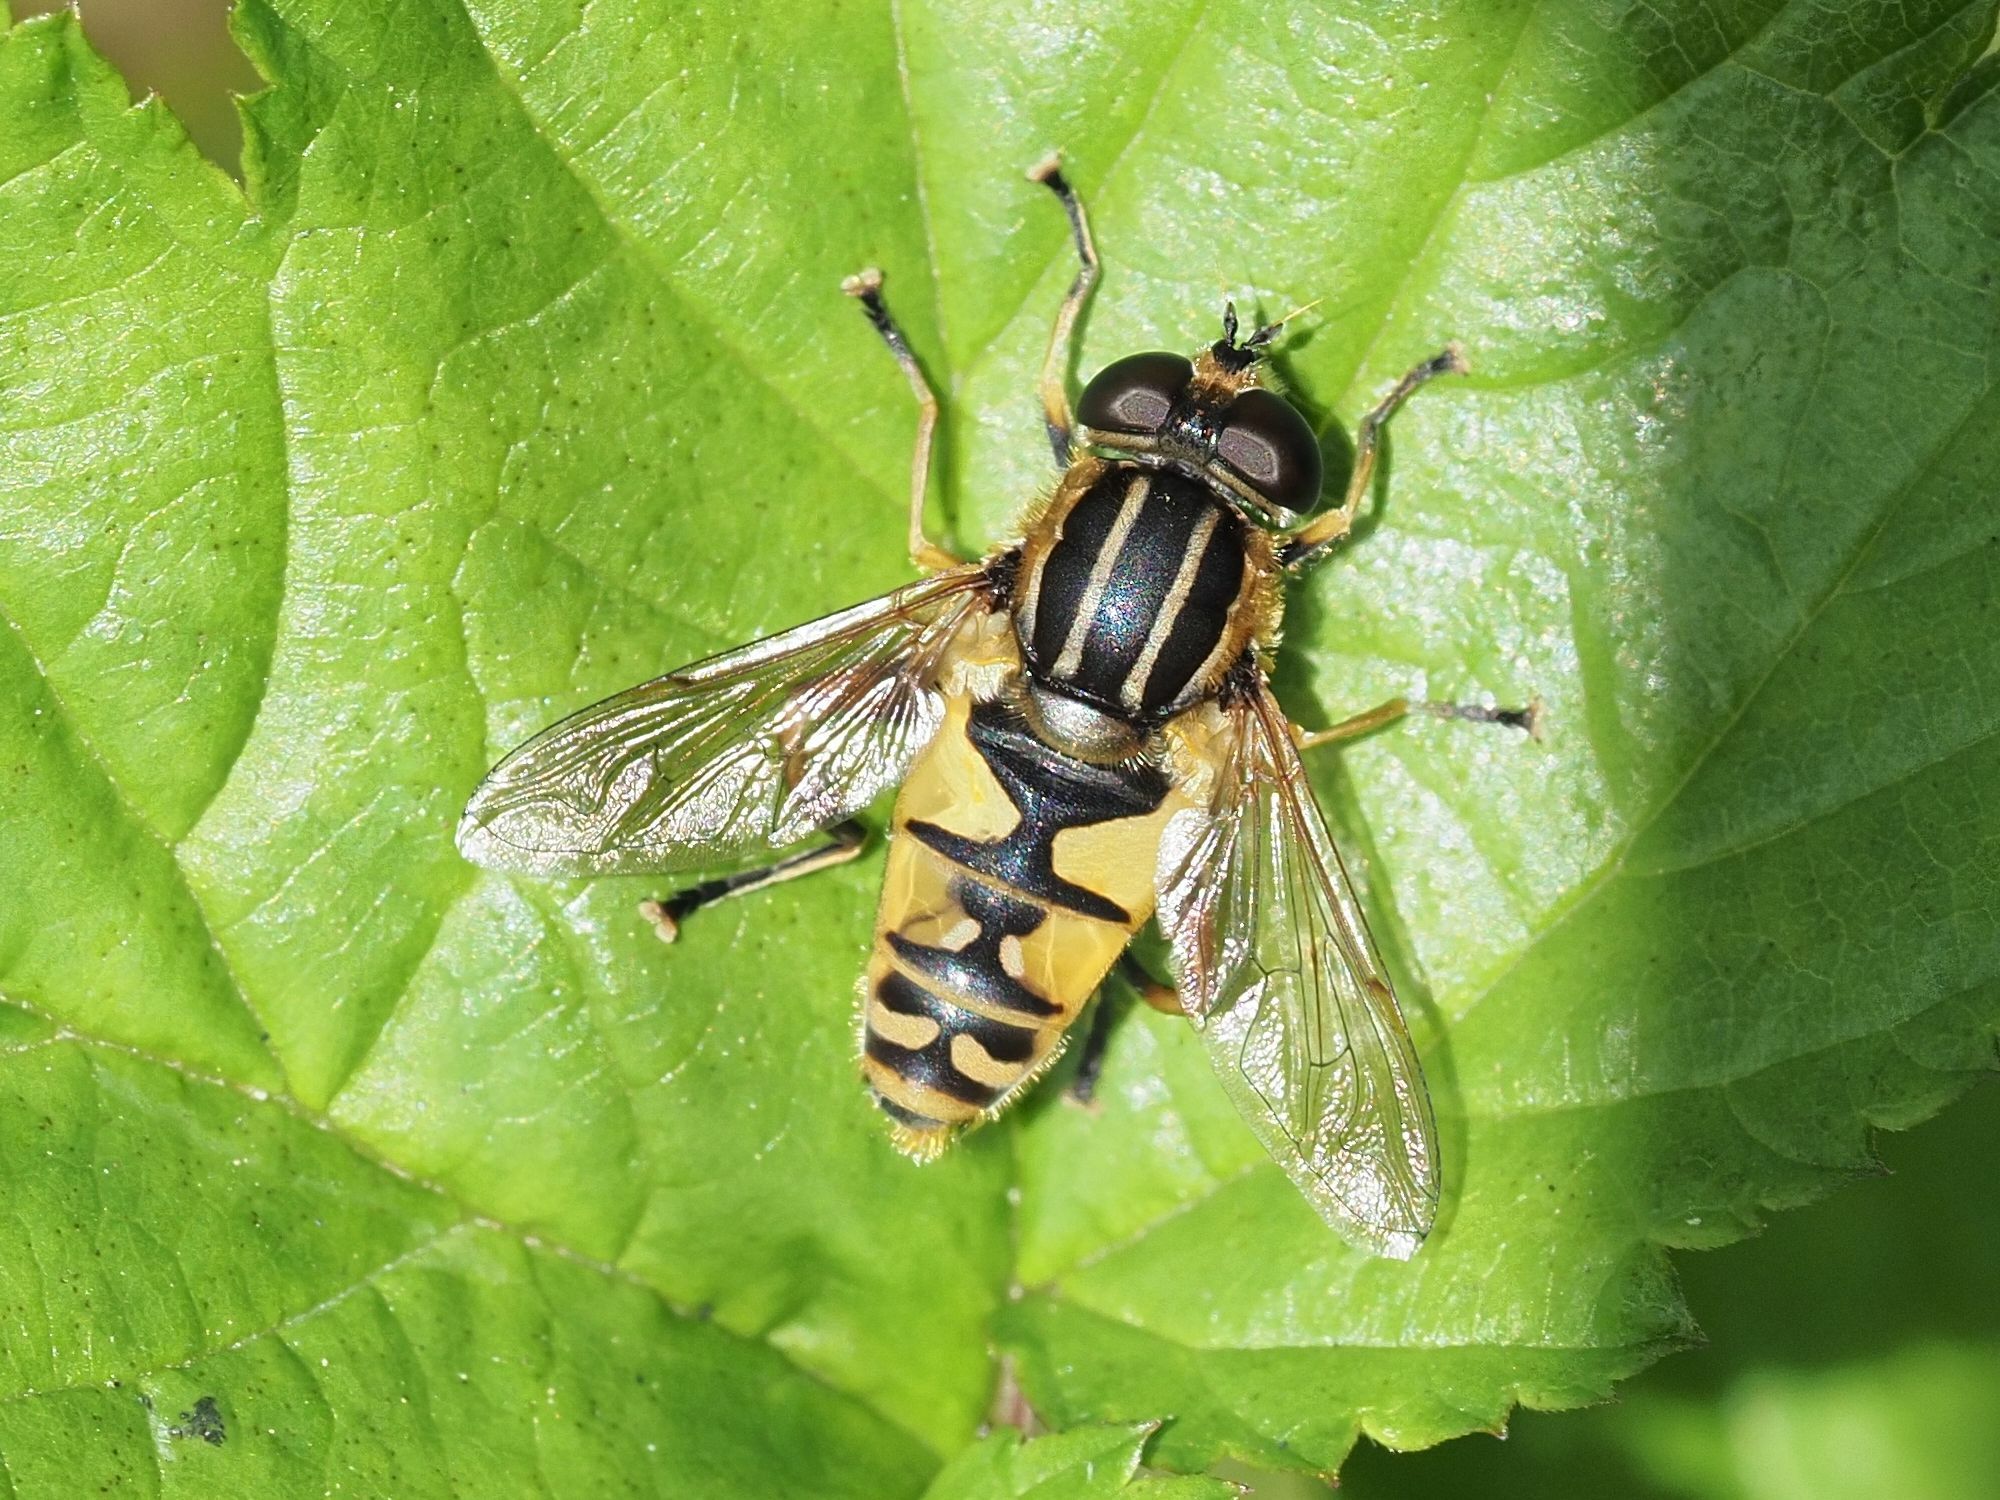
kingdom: Animalia
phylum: Arthropoda
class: Insecta
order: Diptera
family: Syrphidae
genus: Helophilus
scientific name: Helophilus pendulus
